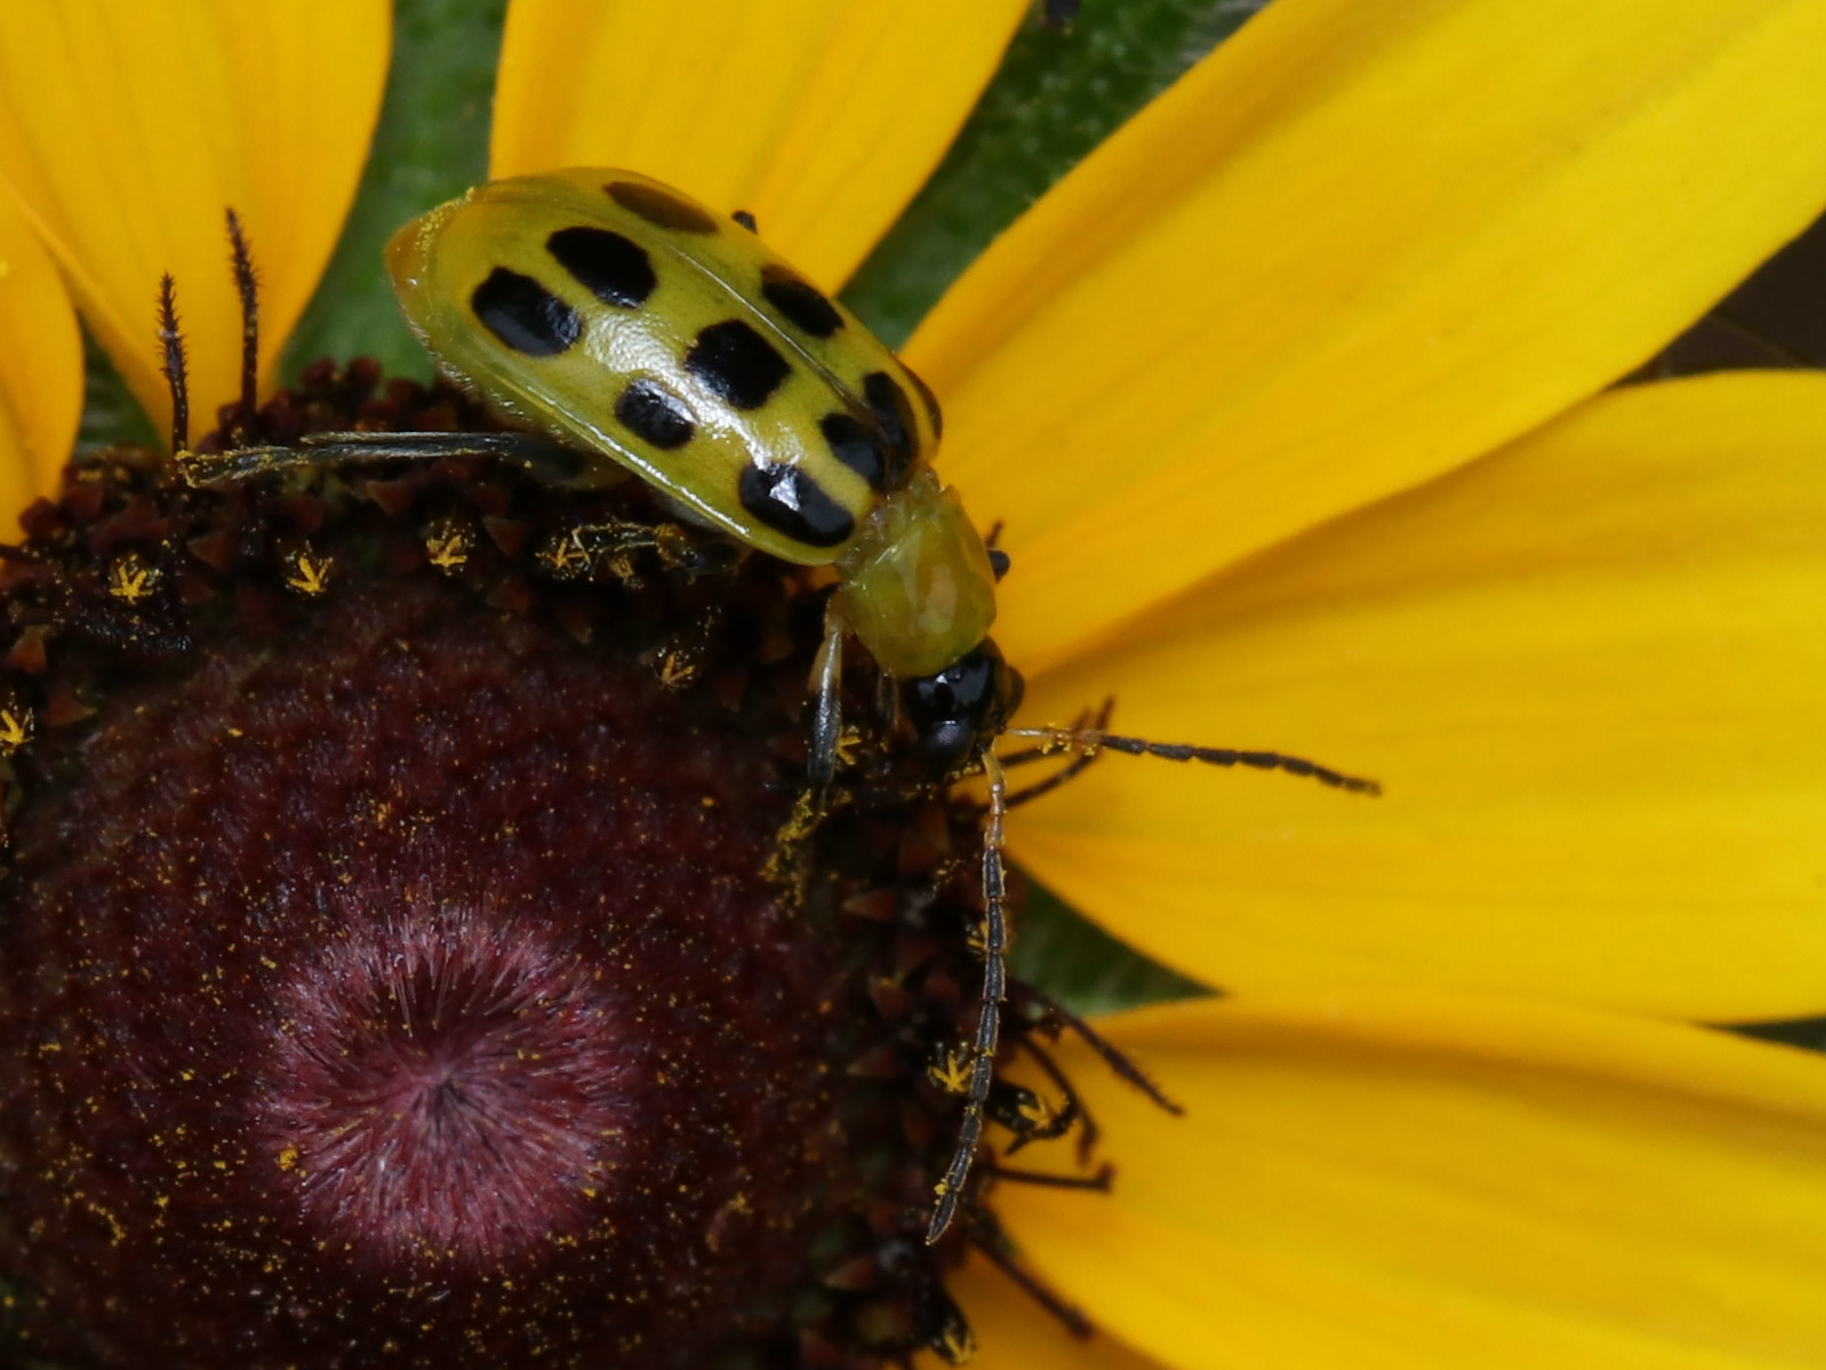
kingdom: Animalia
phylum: Arthropoda
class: Insecta
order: Coleoptera
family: Chrysomelidae
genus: Diabrotica
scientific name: Diabrotica undecimpunctata
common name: Spotted cucumber beetle
